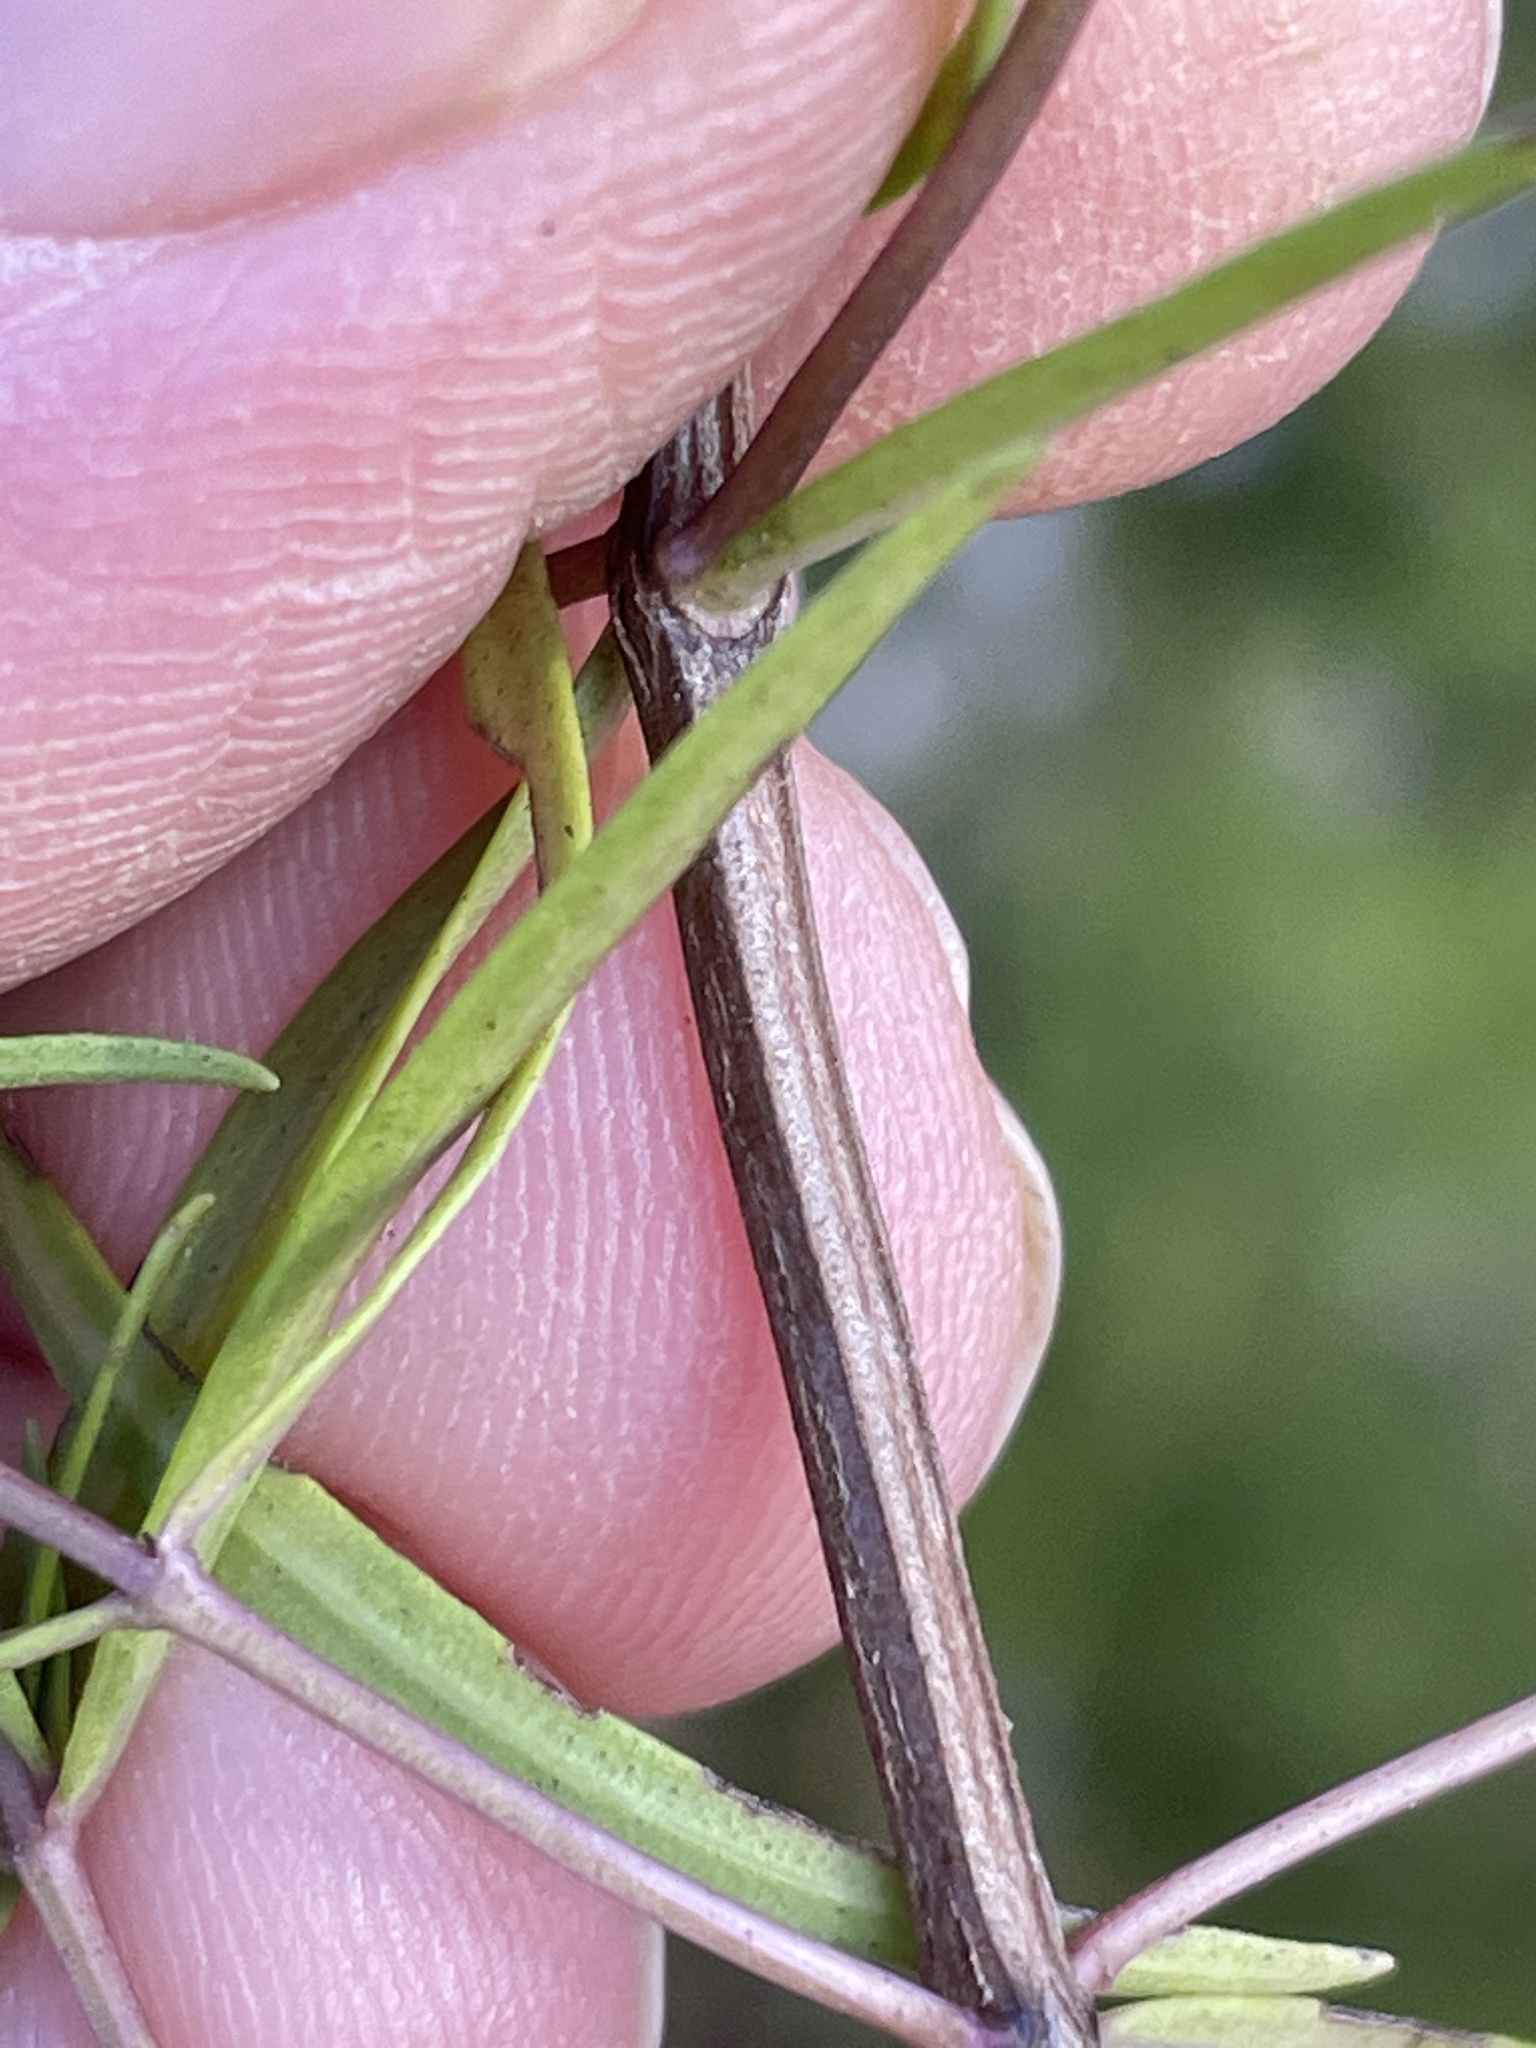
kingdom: Plantae
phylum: Tracheophyta
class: Magnoliopsida
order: Lamiales
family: Lamiaceae
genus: Pycnanthemum
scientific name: Pycnanthemum tenuifolium
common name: Narrow-leaf mountain-mint
